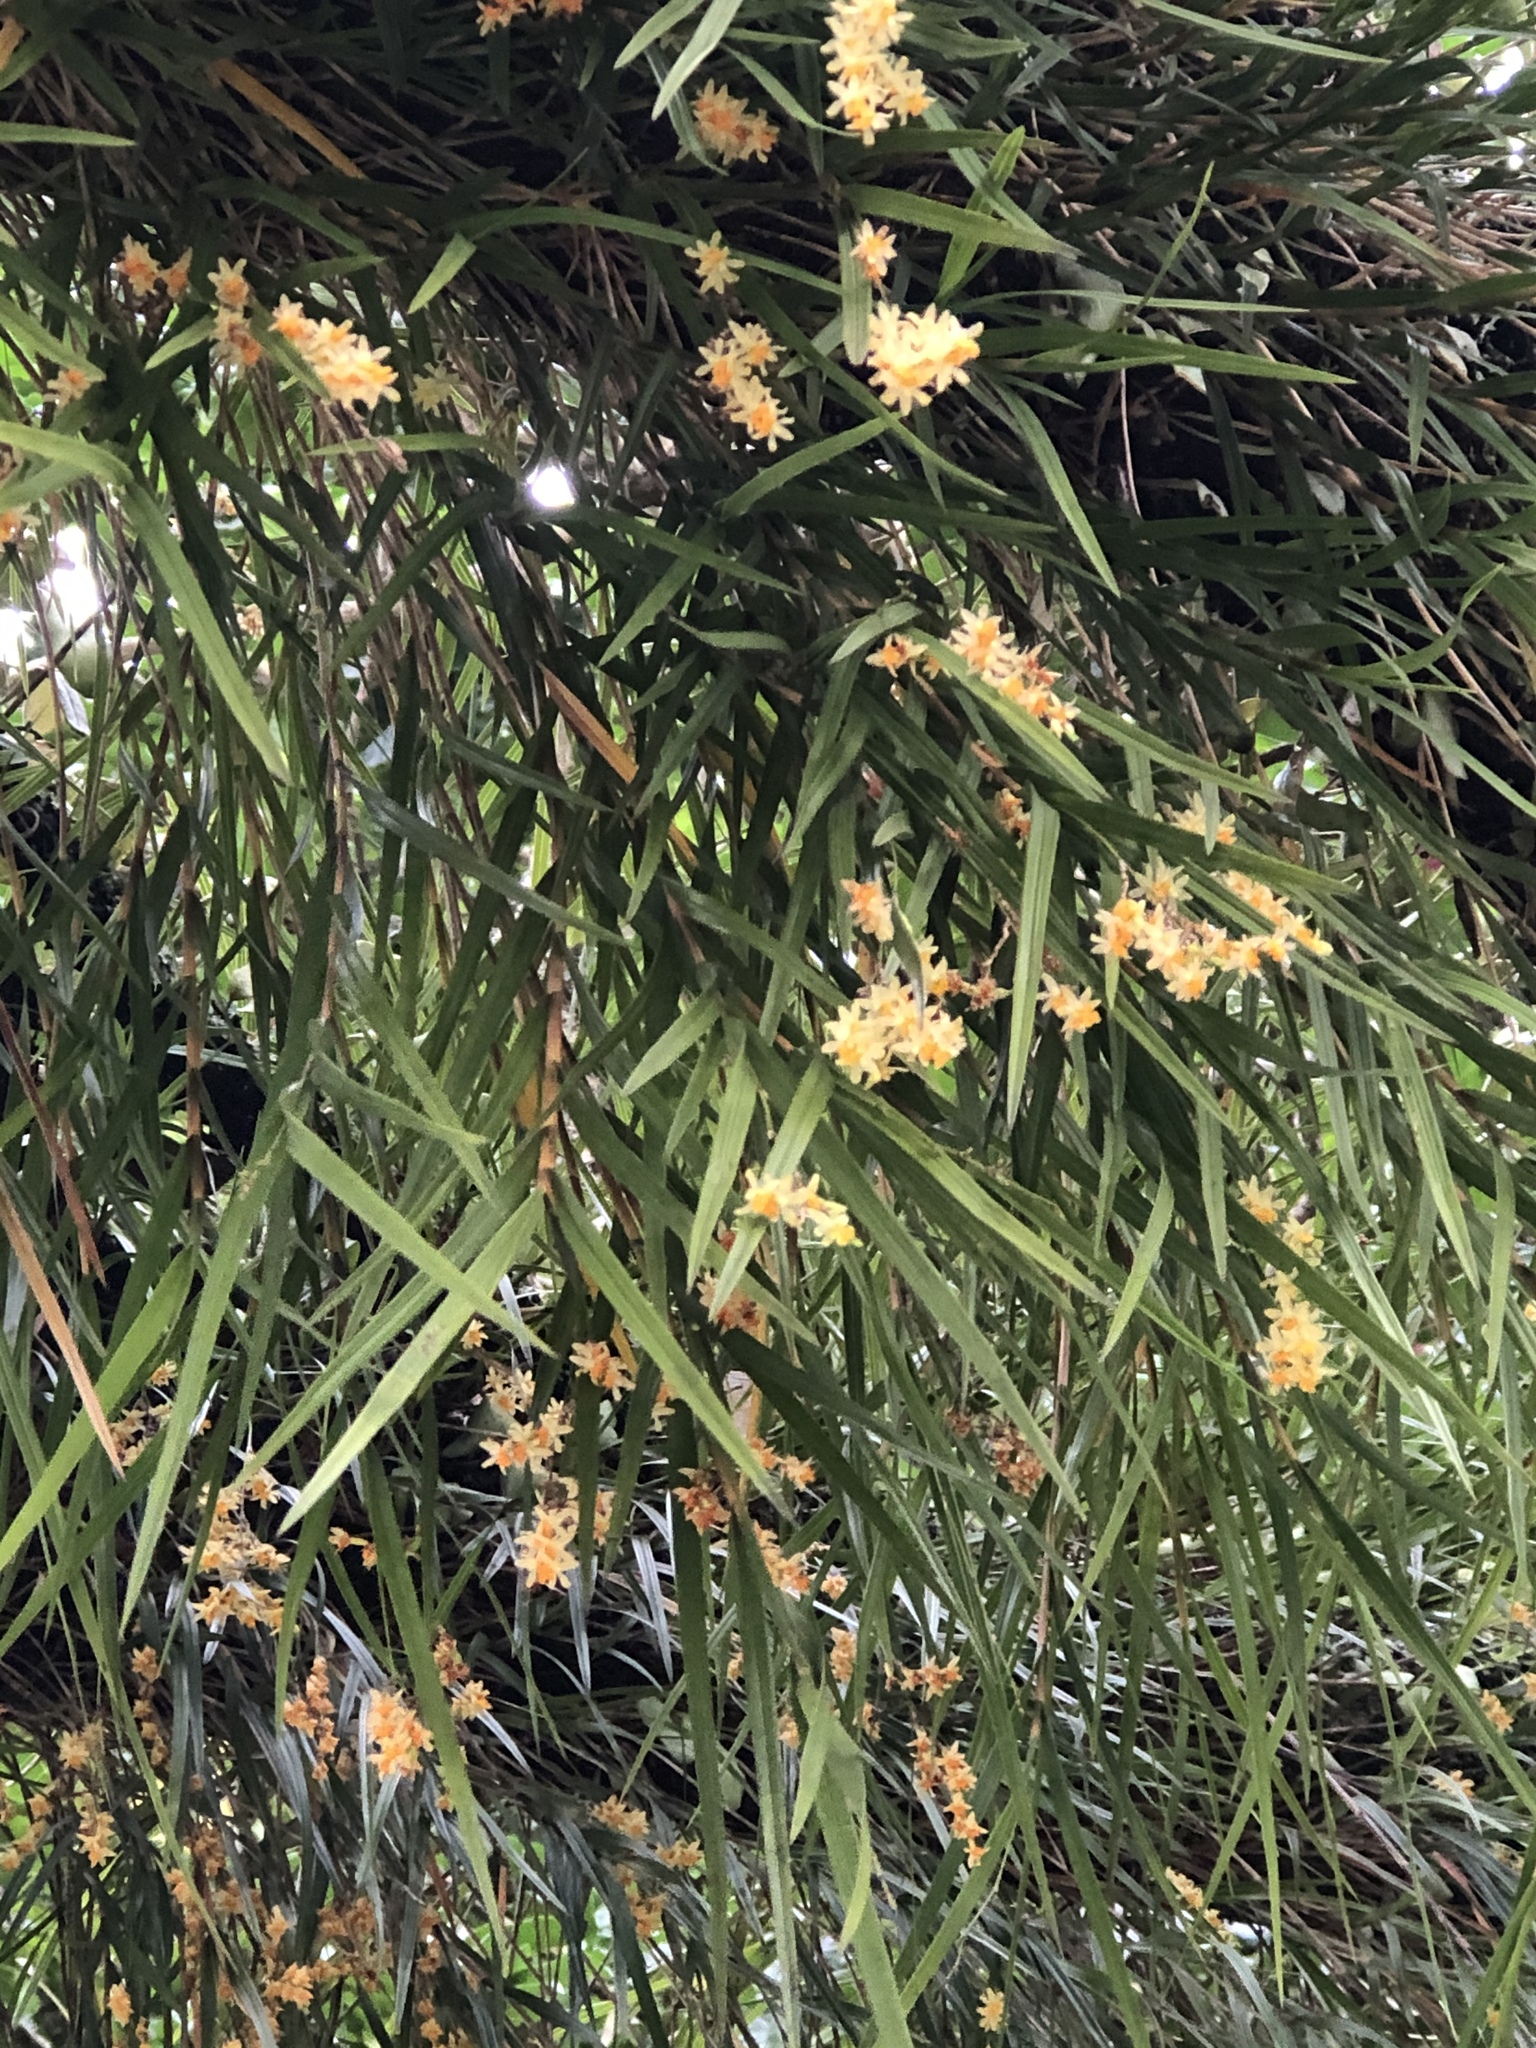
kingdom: Plantae
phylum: Tracheophyta
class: Liliopsida
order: Asparagales
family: Orchidaceae
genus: Earina
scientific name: Earina aestivalis
